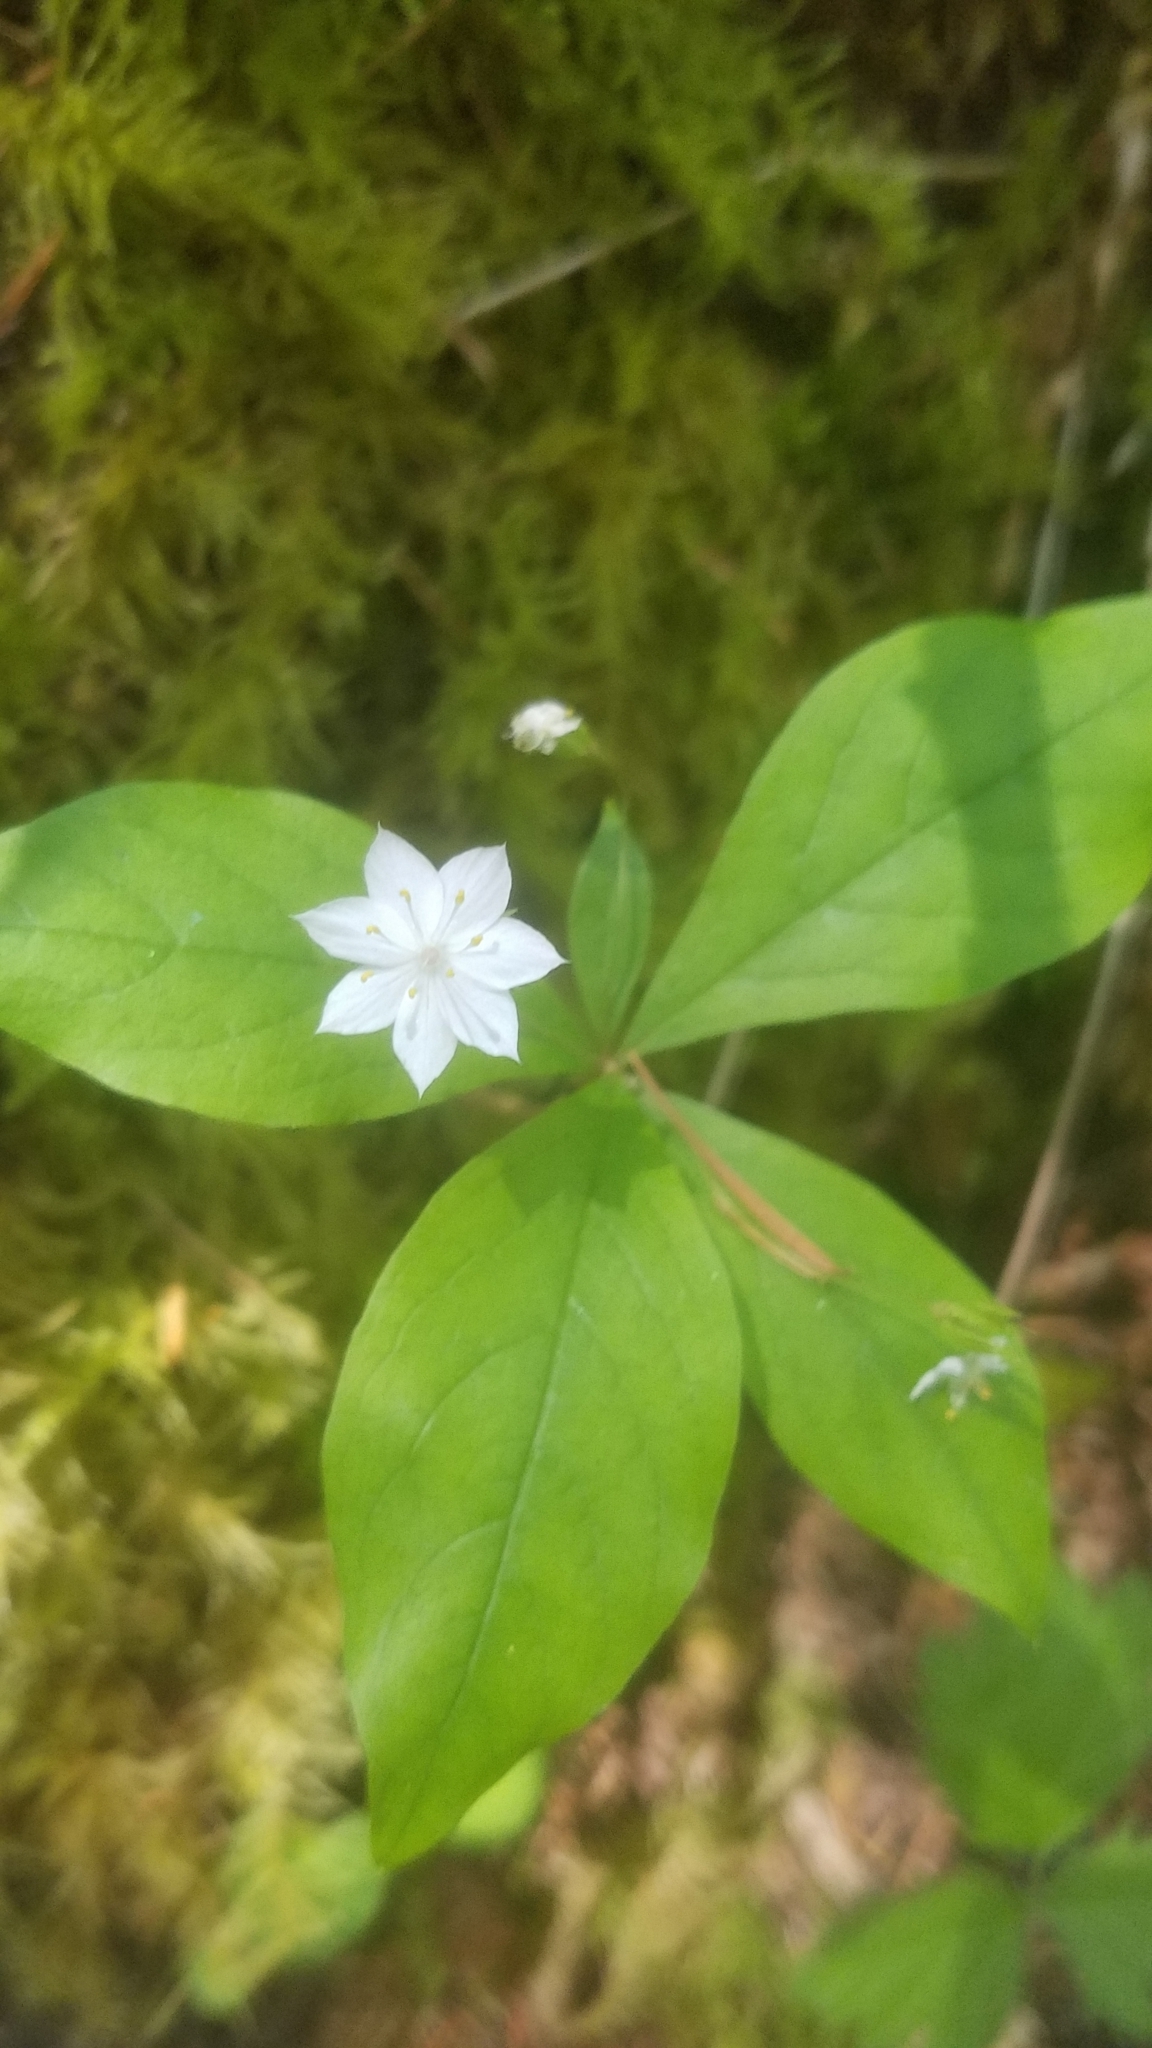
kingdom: Plantae
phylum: Tracheophyta
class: Magnoliopsida
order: Ericales
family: Primulaceae
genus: Lysimachia
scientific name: Lysimachia latifolia
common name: Pacific starflower
